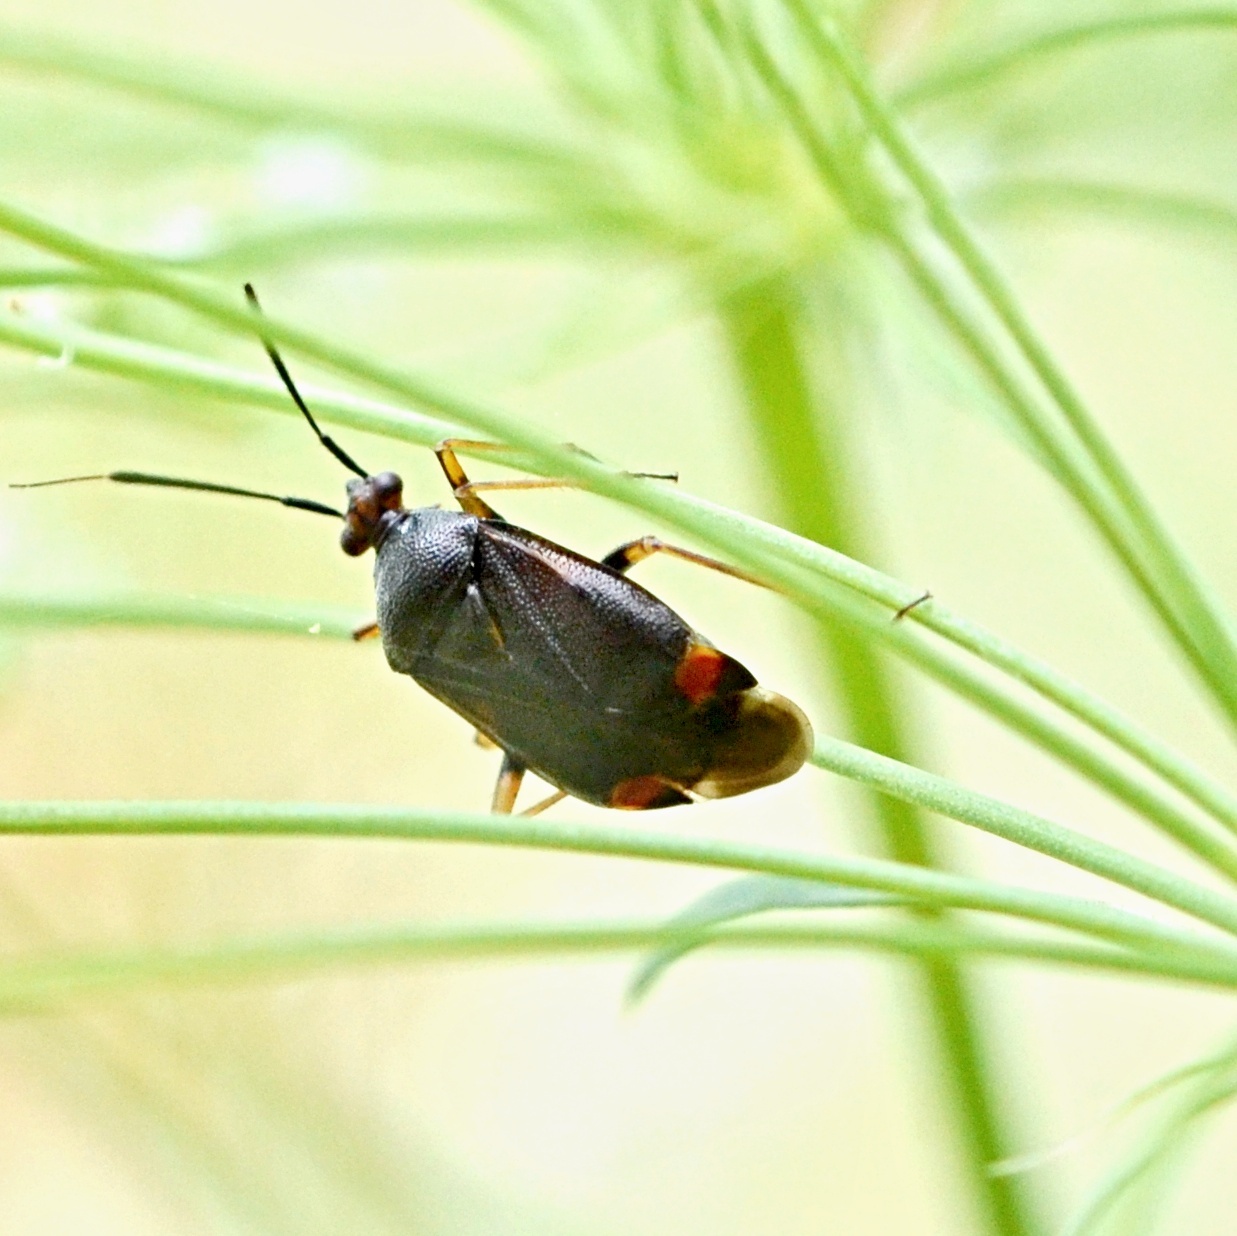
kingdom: Animalia
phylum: Arthropoda
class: Insecta
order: Hemiptera
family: Miridae
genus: Deraeocoris
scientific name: Deraeocoris ruber
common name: Plant bug
